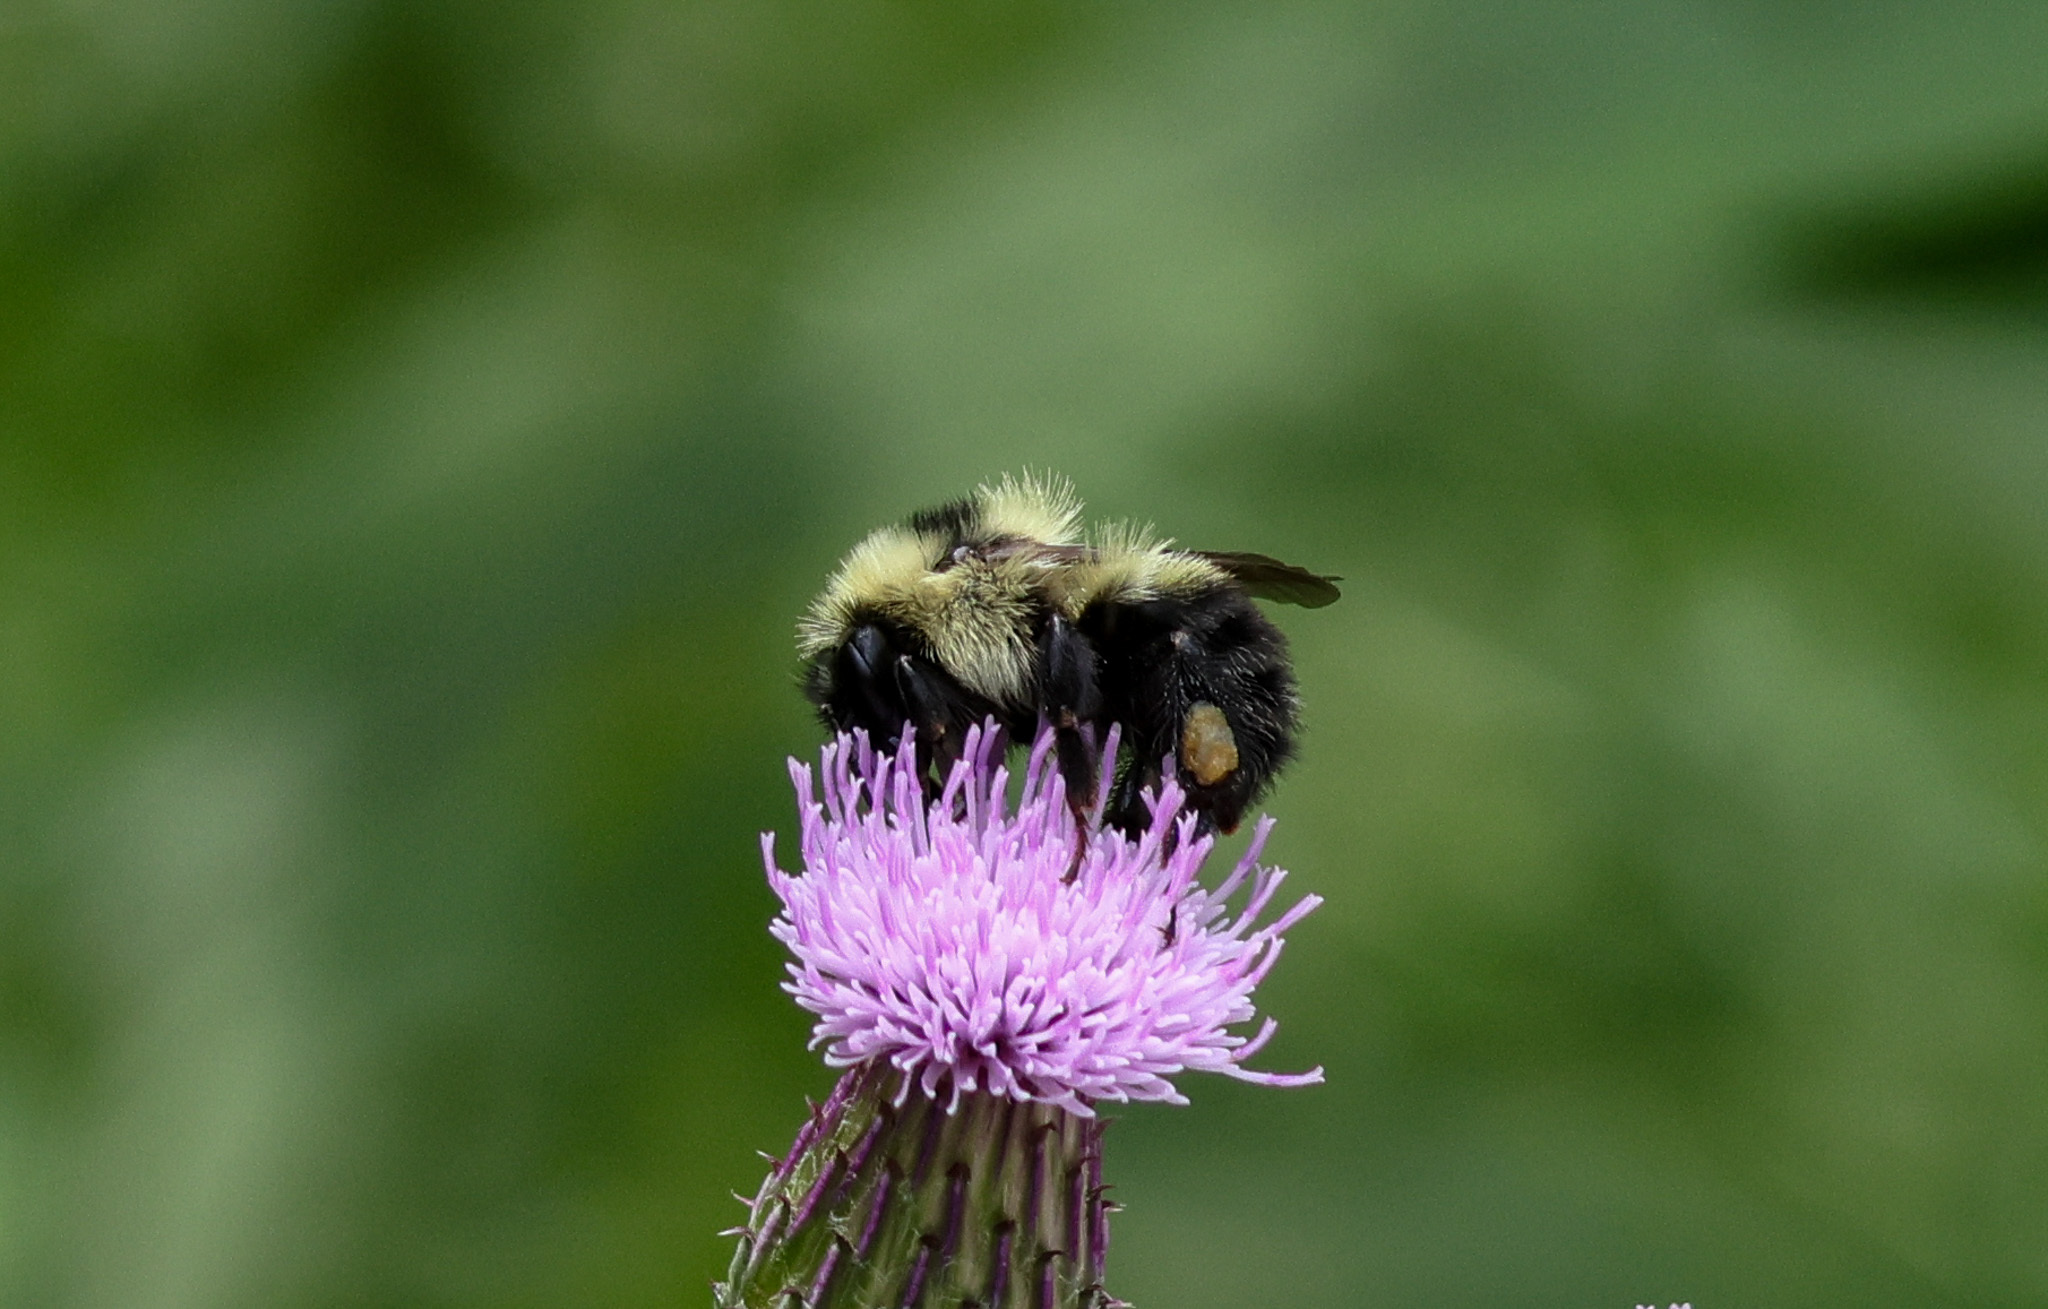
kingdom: Animalia
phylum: Arthropoda
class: Insecta
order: Hymenoptera
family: Apidae
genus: Bombus
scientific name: Bombus rufocinctus
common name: Red-belted bumble bee
